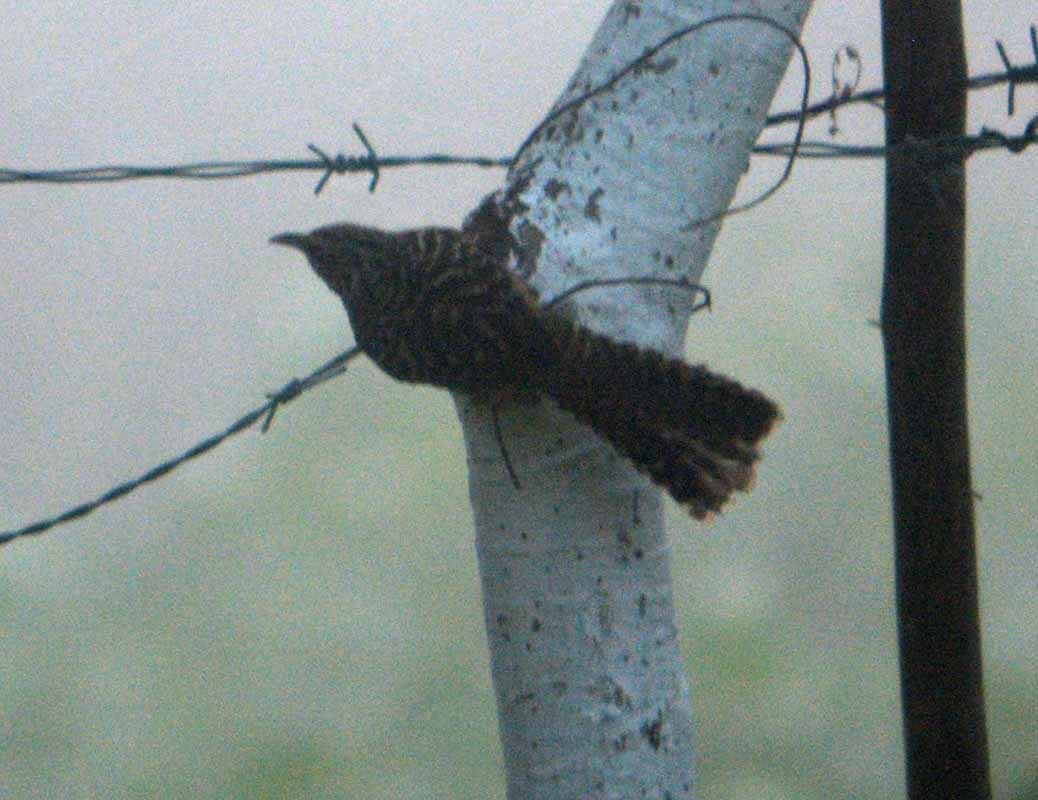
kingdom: Animalia
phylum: Chordata
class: Aves
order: Passeriformes
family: Troglodytidae
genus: Campylorhynchus
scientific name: Campylorhynchus zonatus
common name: Band-backed wren
